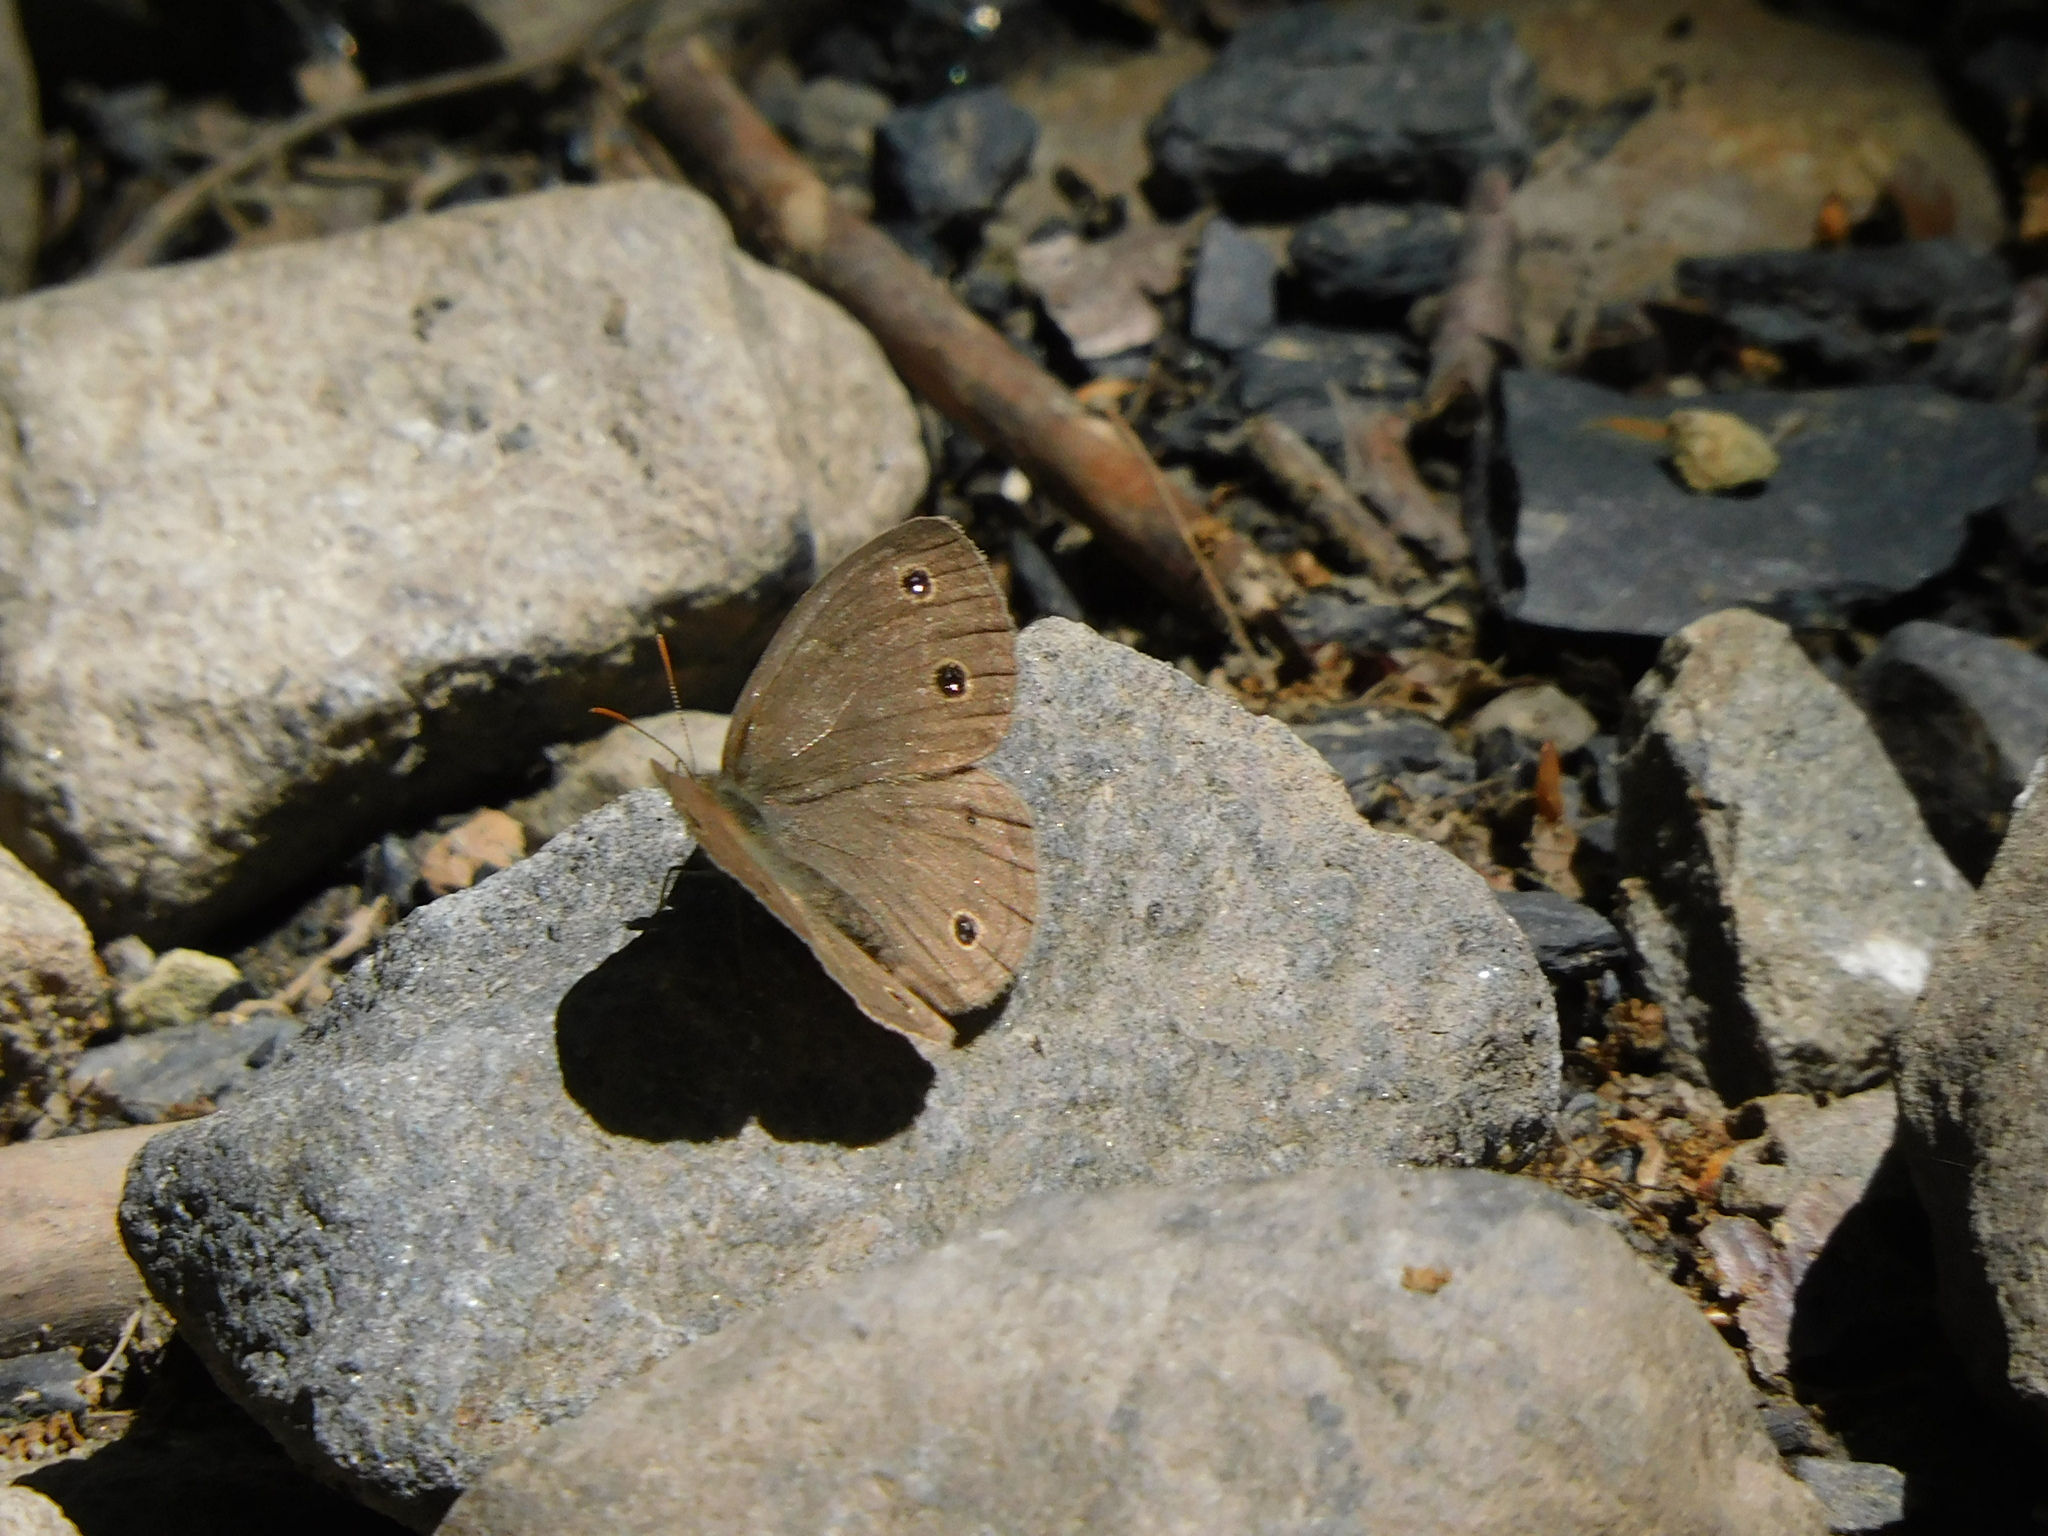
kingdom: Animalia
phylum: Arthropoda
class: Insecta
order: Lepidoptera
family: Nymphalidae
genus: Euptychia
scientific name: Euptychia cymela
